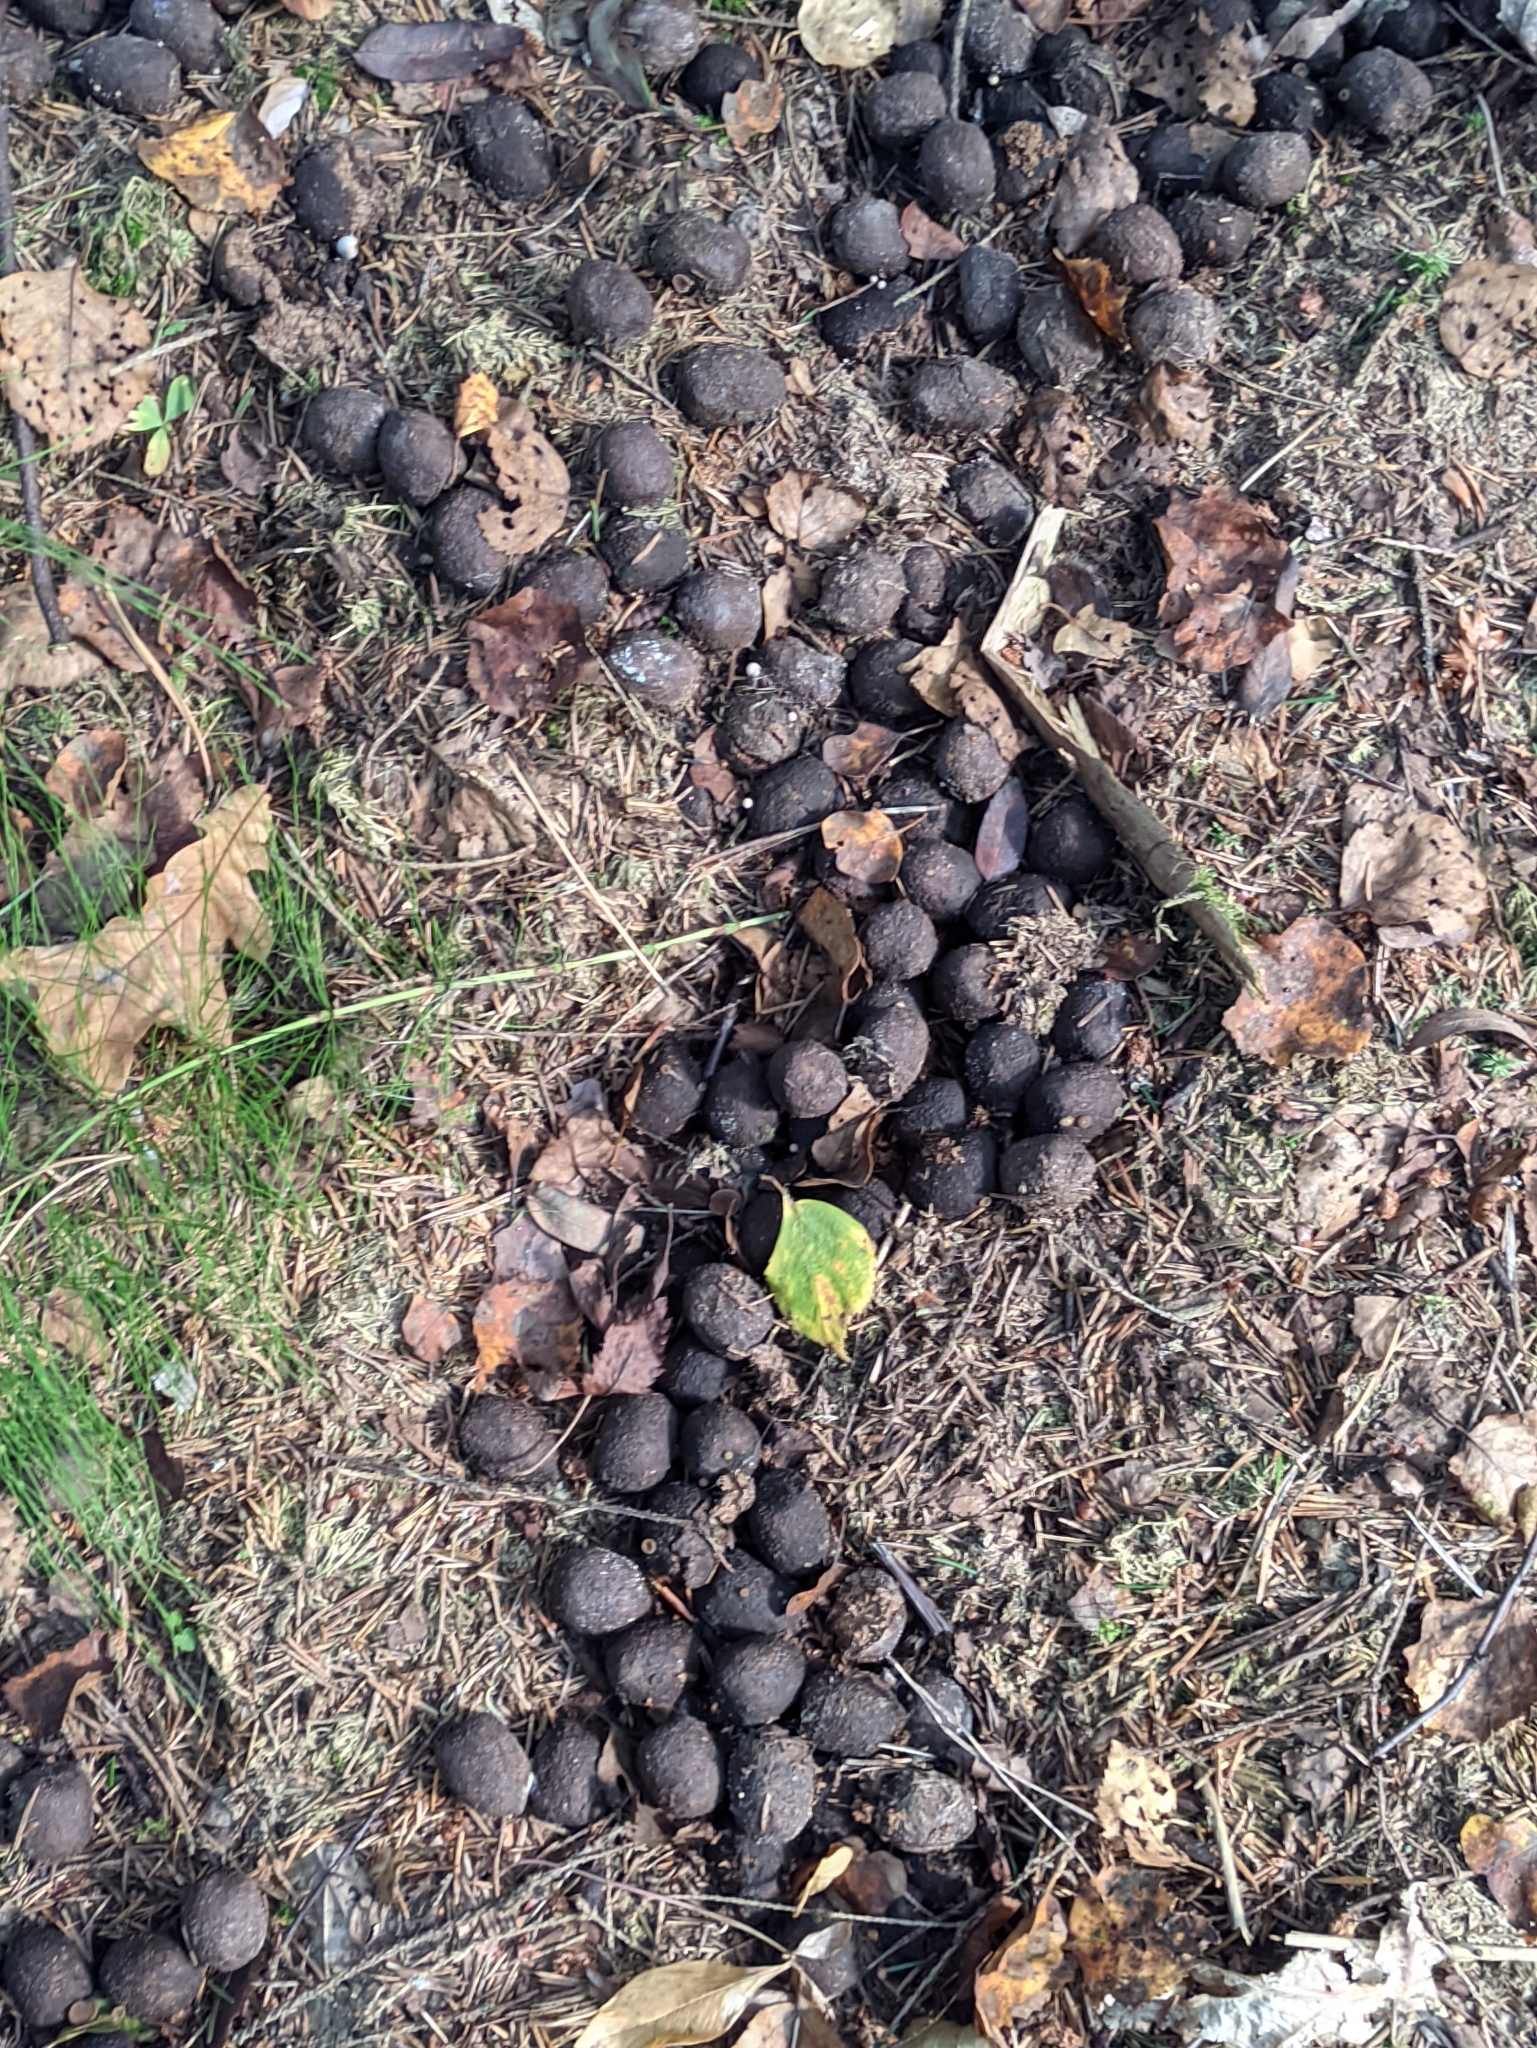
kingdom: Animalia
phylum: Chordata
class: Mammalia
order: Artiodactyla
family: Cervidae
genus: Alces
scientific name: Alces alces
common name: Moose
